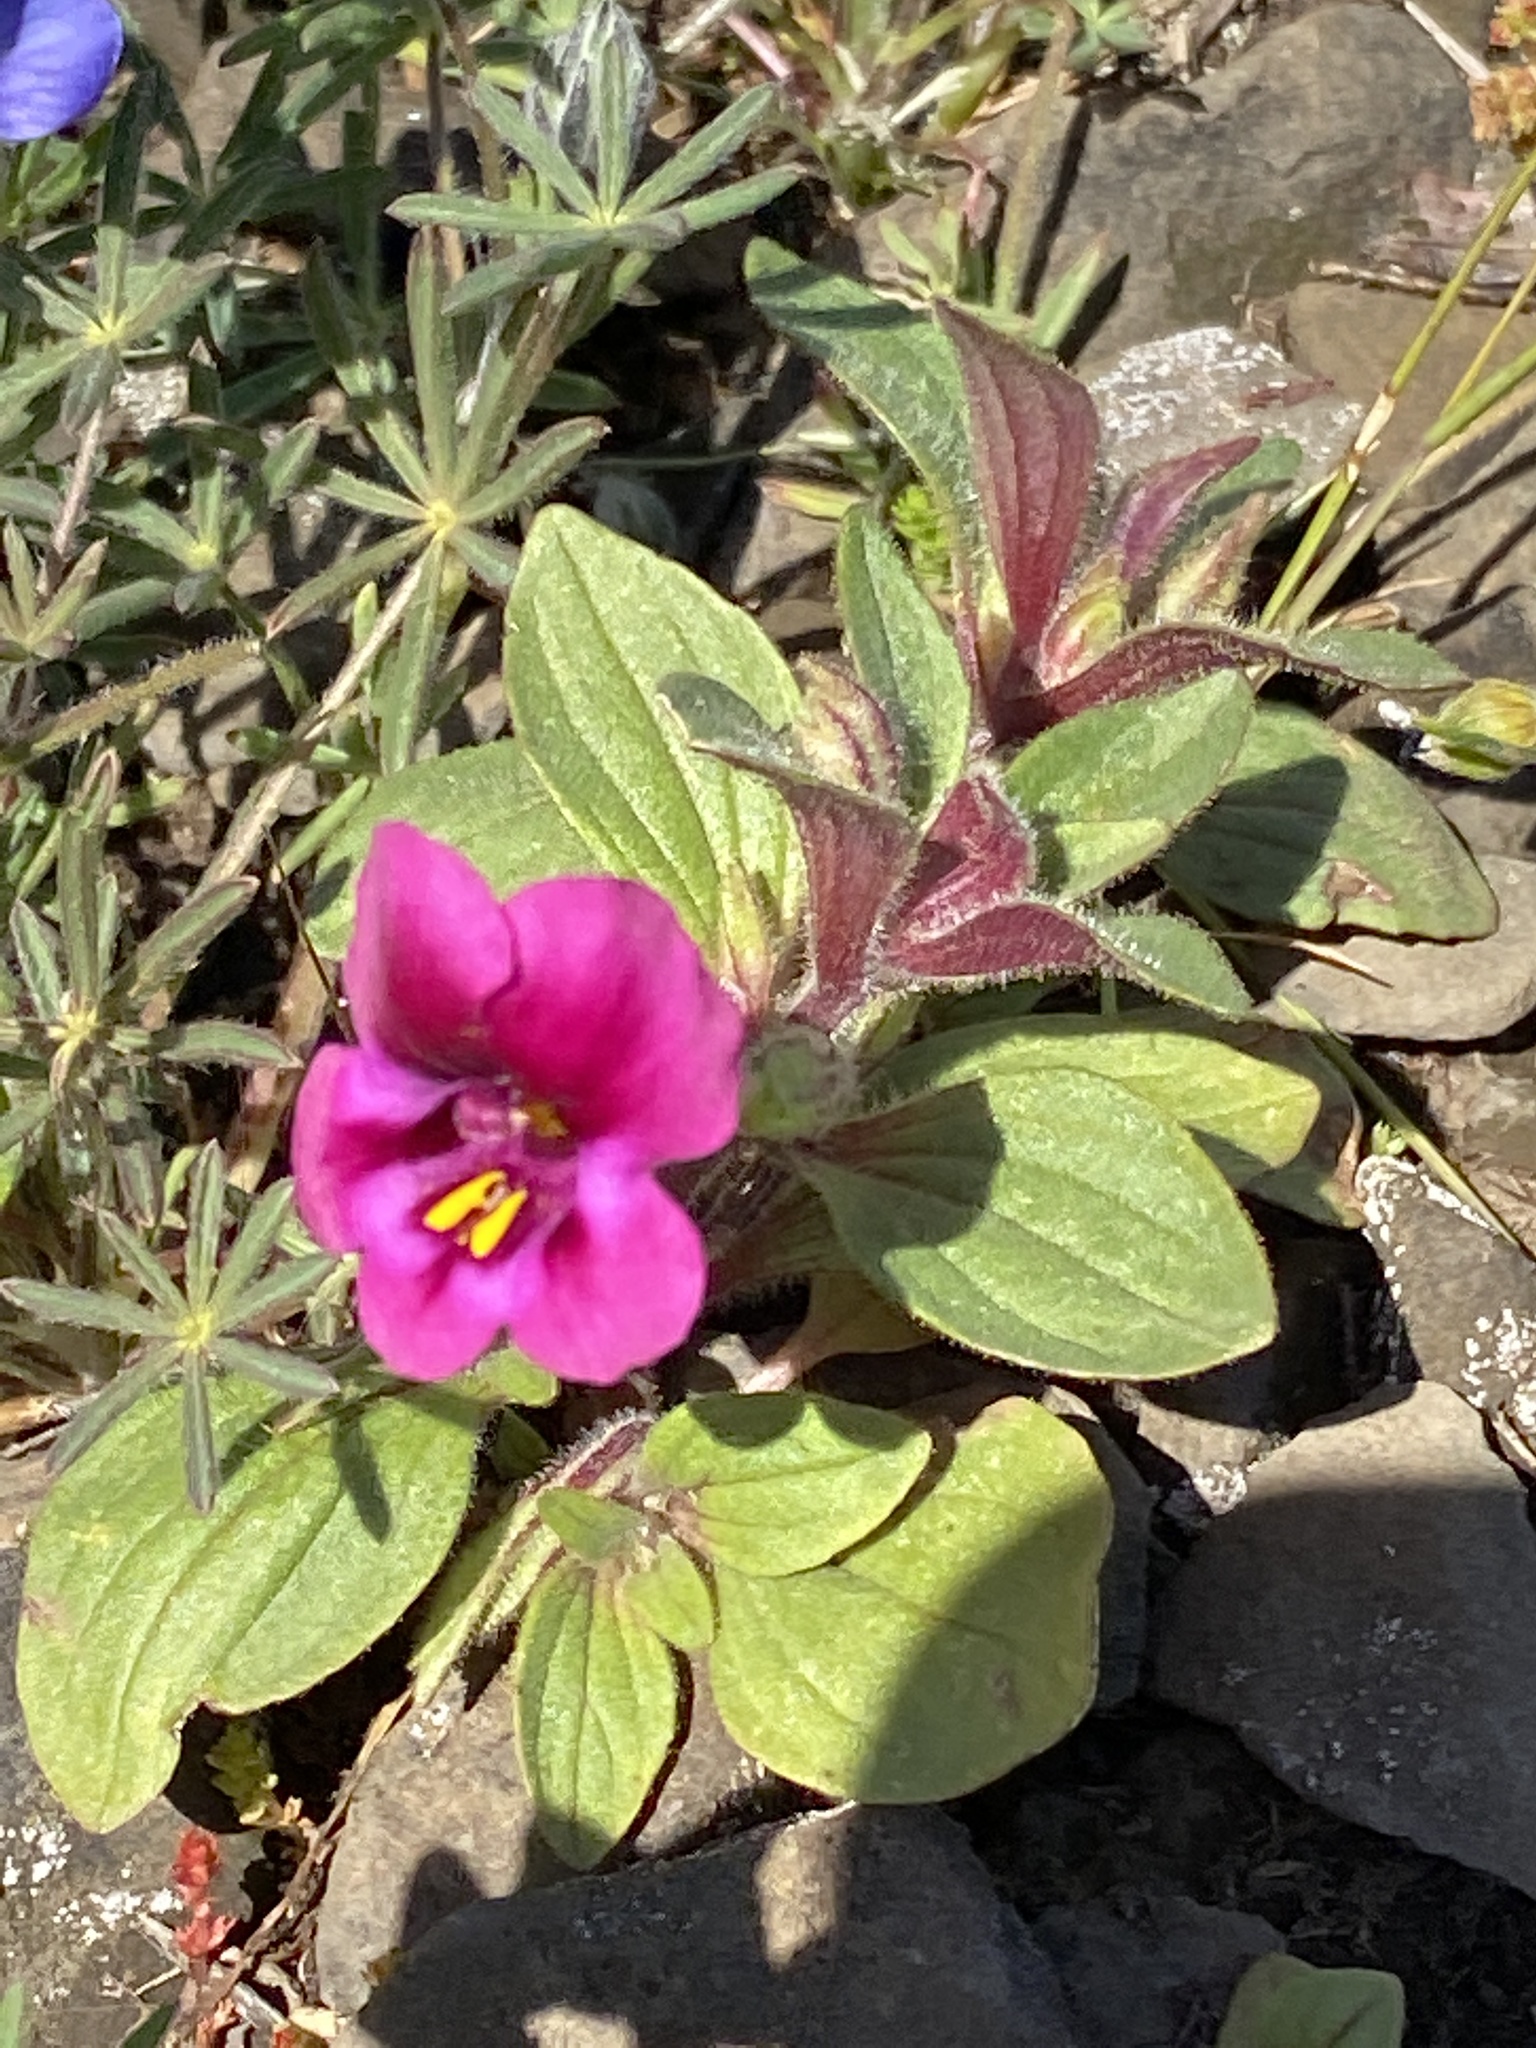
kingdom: Plantae
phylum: Tracheophyta
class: Magnoliopsida
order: Lamiales
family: Phrymaceae
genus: Diplacus
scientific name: Diplacus kelloggii
